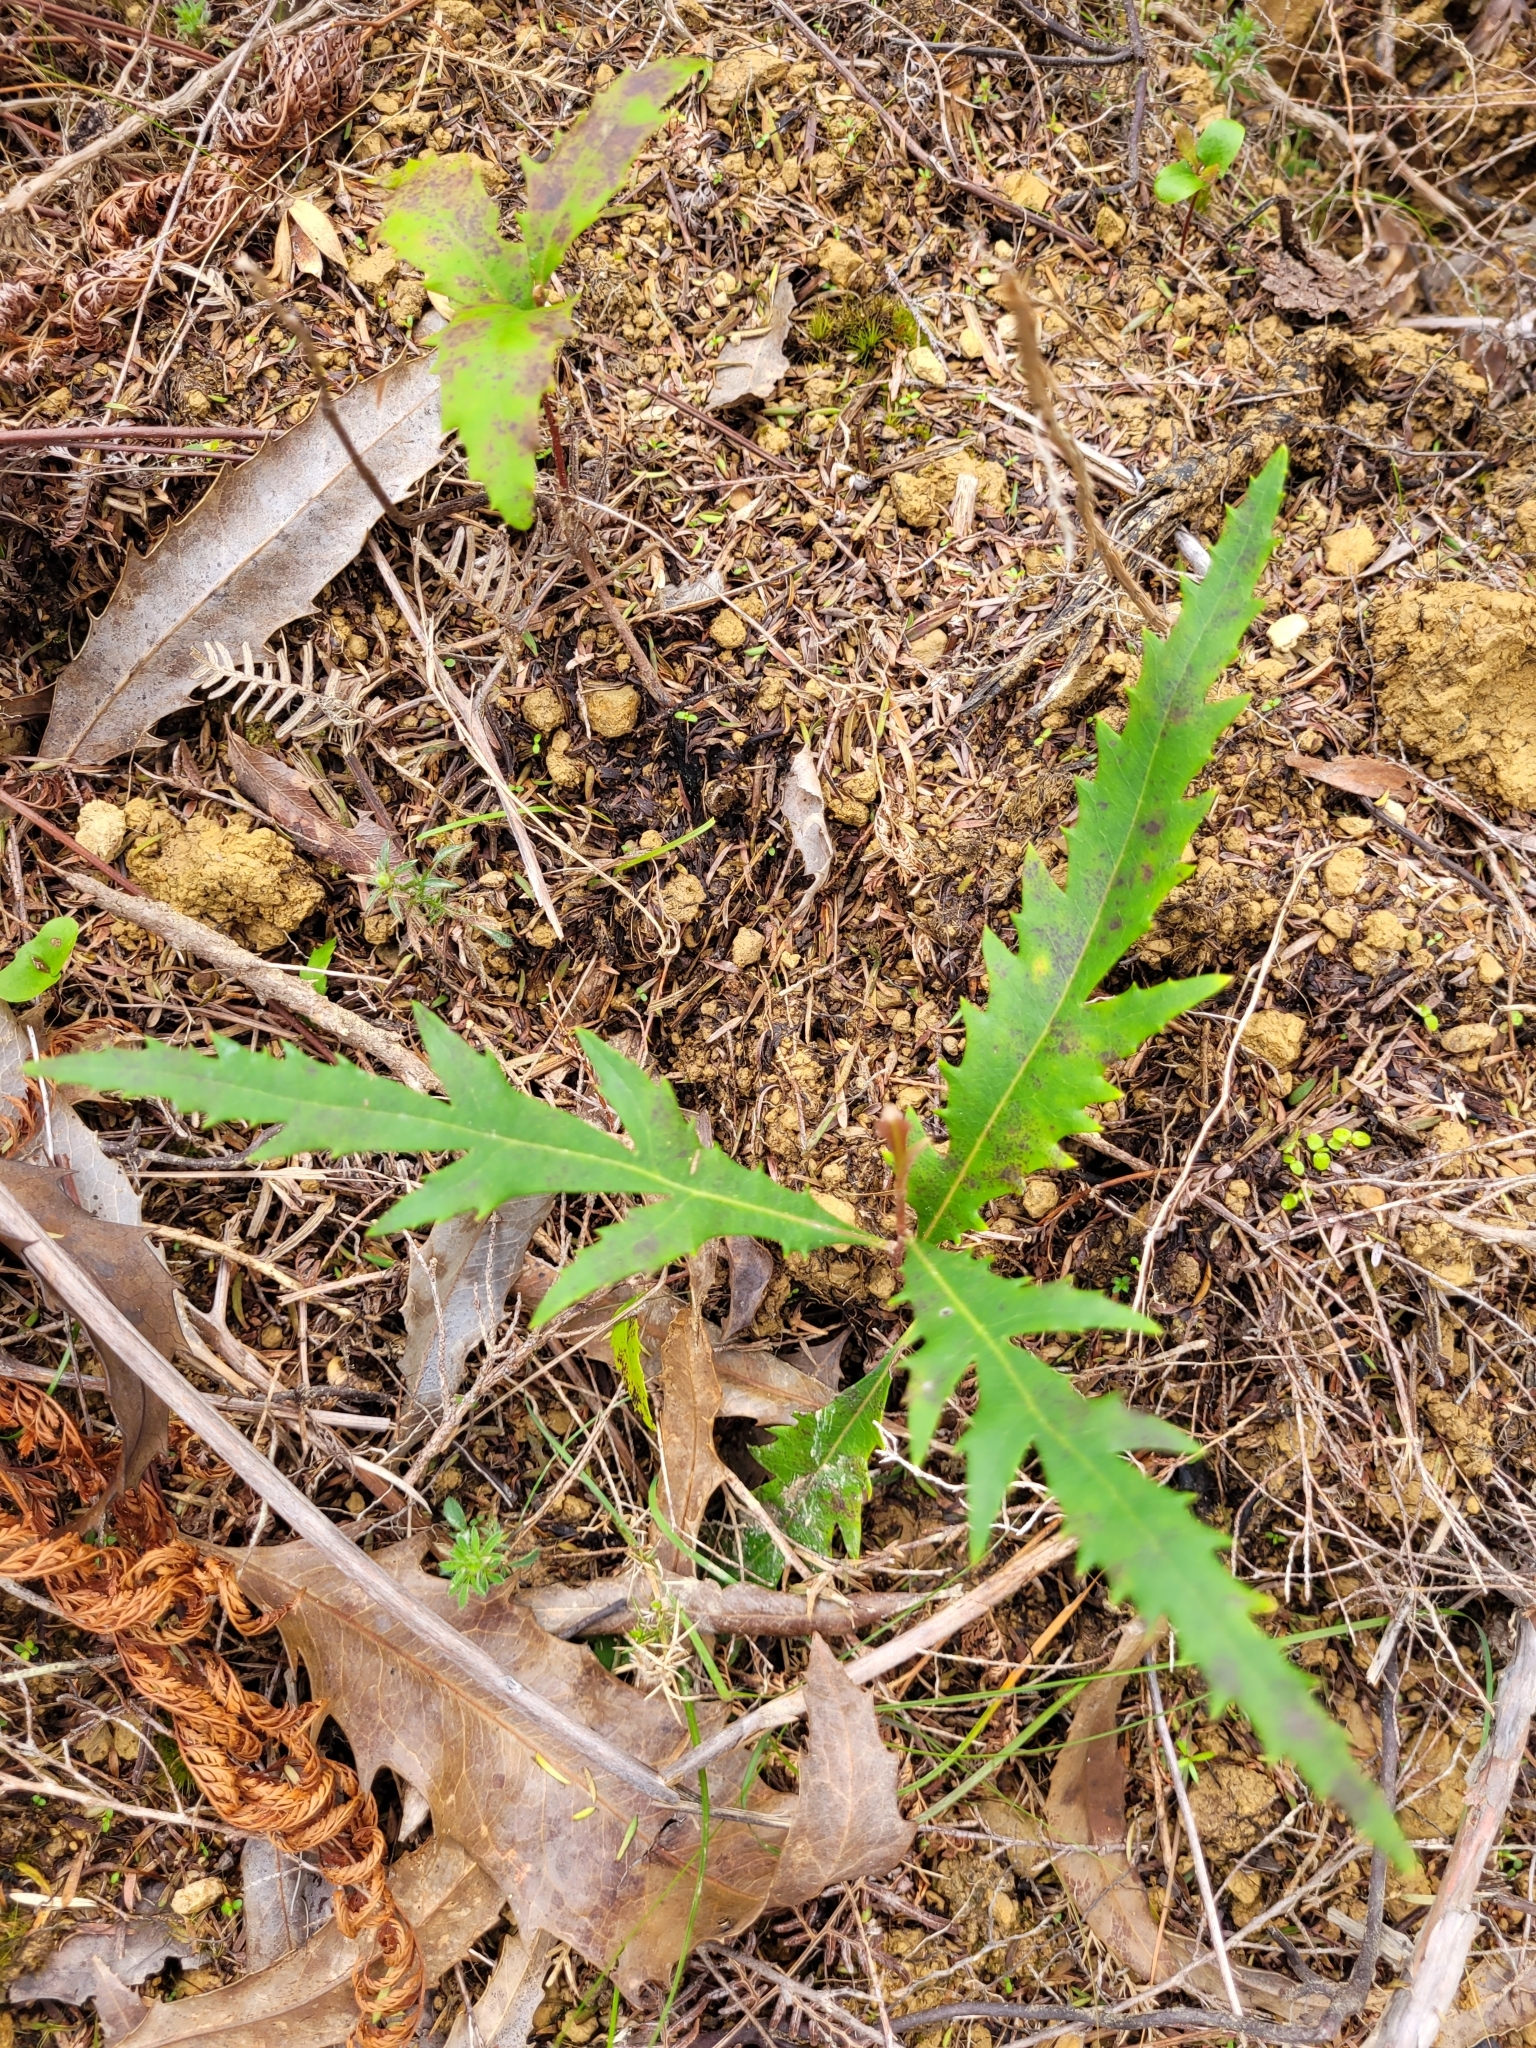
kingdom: Plantae
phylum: Tracheophyta
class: Magnoliopsida
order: Proteales
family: Proteaceae
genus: Lomatia
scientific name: Lomatia fraseri
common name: Forest lomatia
